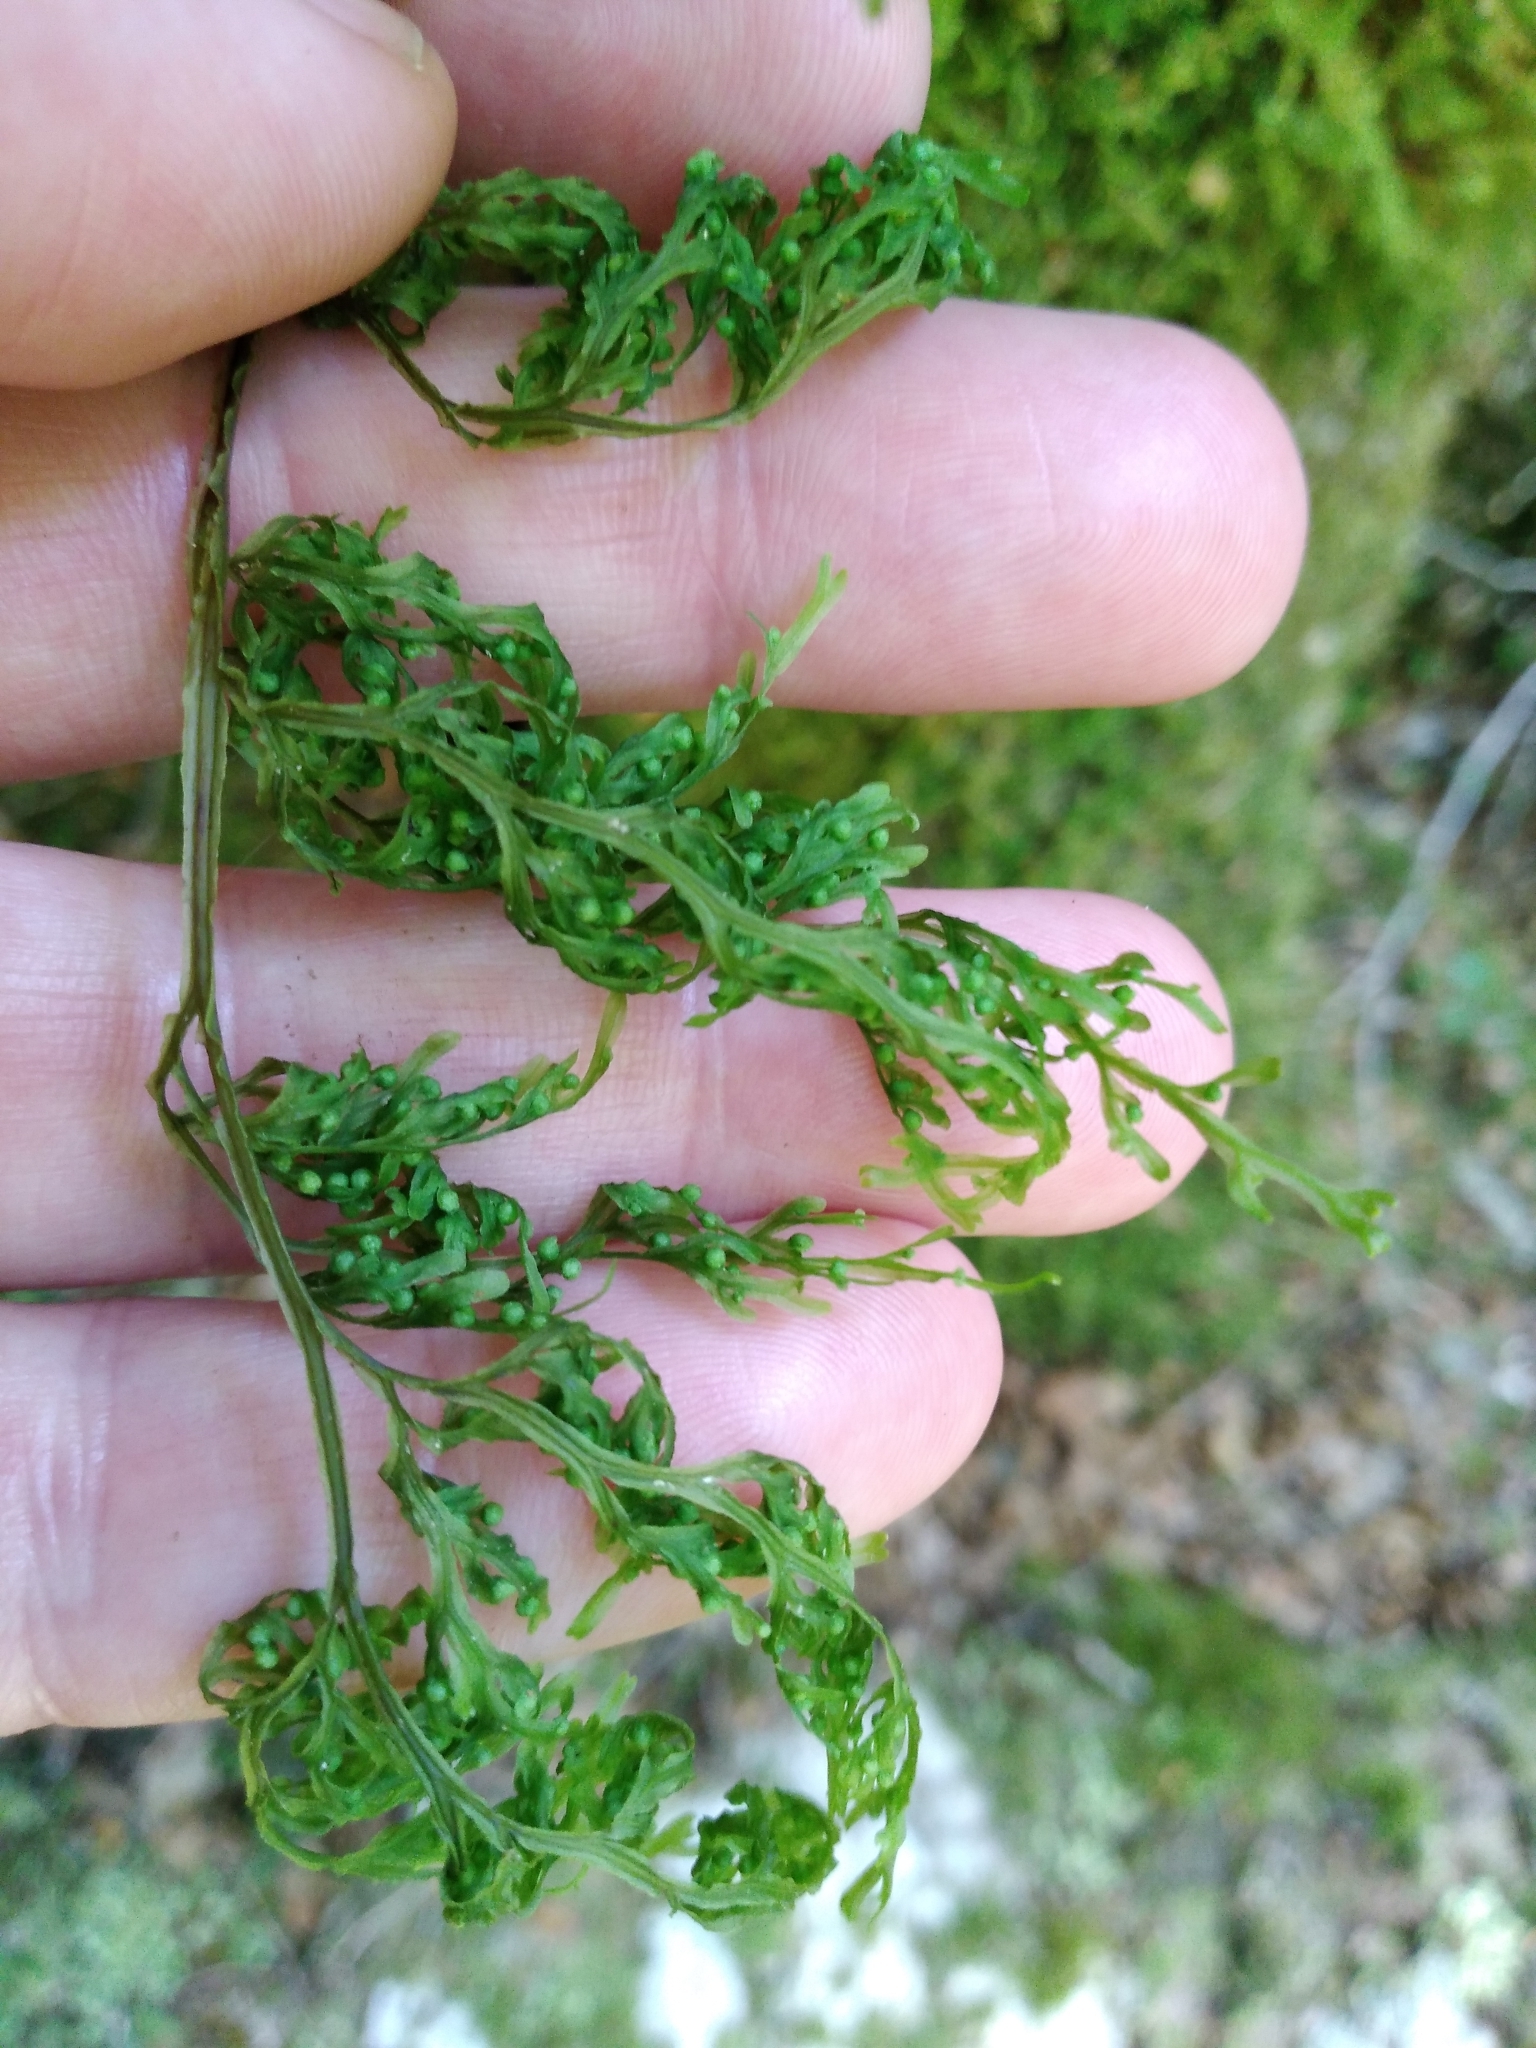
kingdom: Plantae
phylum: Tracheophyta
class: Polypodiopsida
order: Hymenophyllales
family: Hymenophyllaceae
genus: Hymenophyllum
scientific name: Hymenophyllum pulcherrimum
